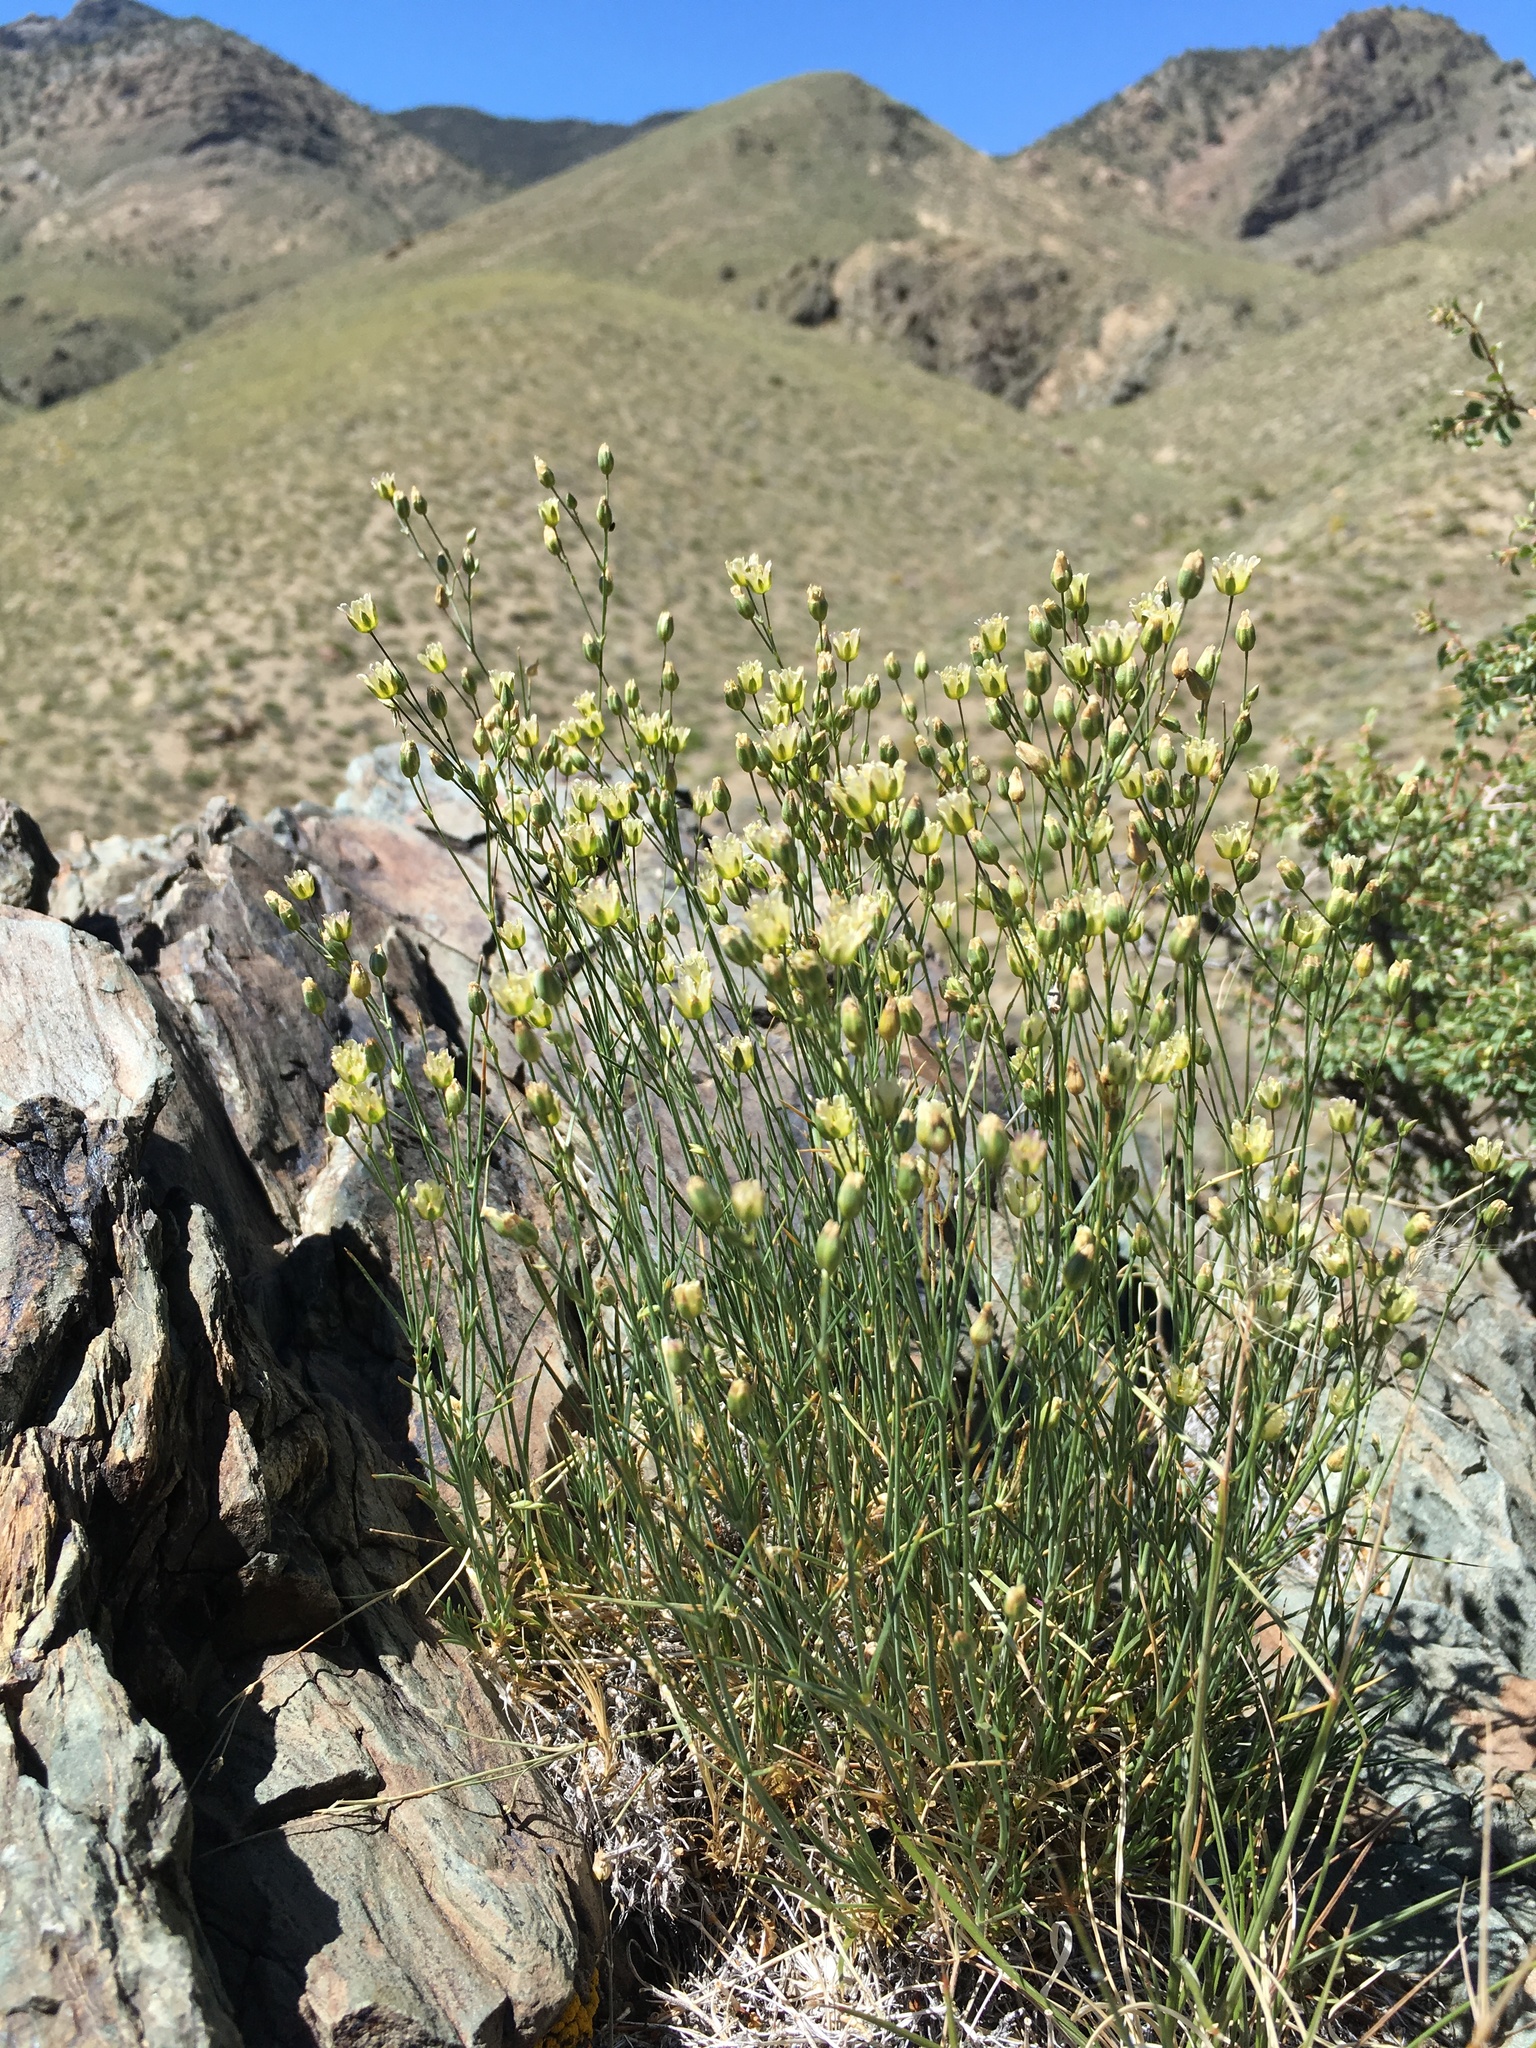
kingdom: Plantae
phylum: Tracheophyta
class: Magnoliopsida
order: Caryophyllales
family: Caryophyllaceae
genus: Eremogone
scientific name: Eremogone macradenia
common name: Mohave sandwort
